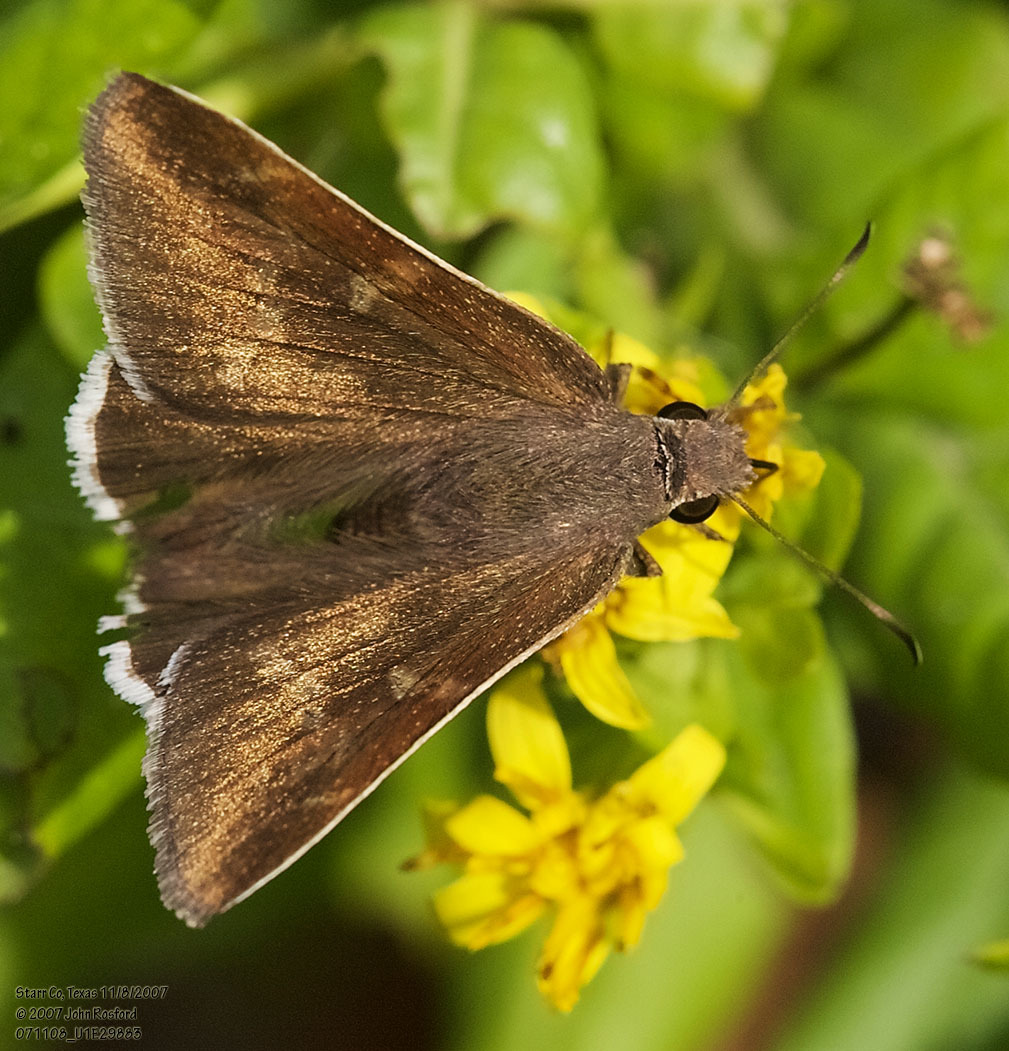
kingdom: Animalia
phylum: Arthropoda
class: Insecta
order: Lepidoptera
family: Hesperiidae
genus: Achalarus
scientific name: Achalarus Murgaria albociliatus
